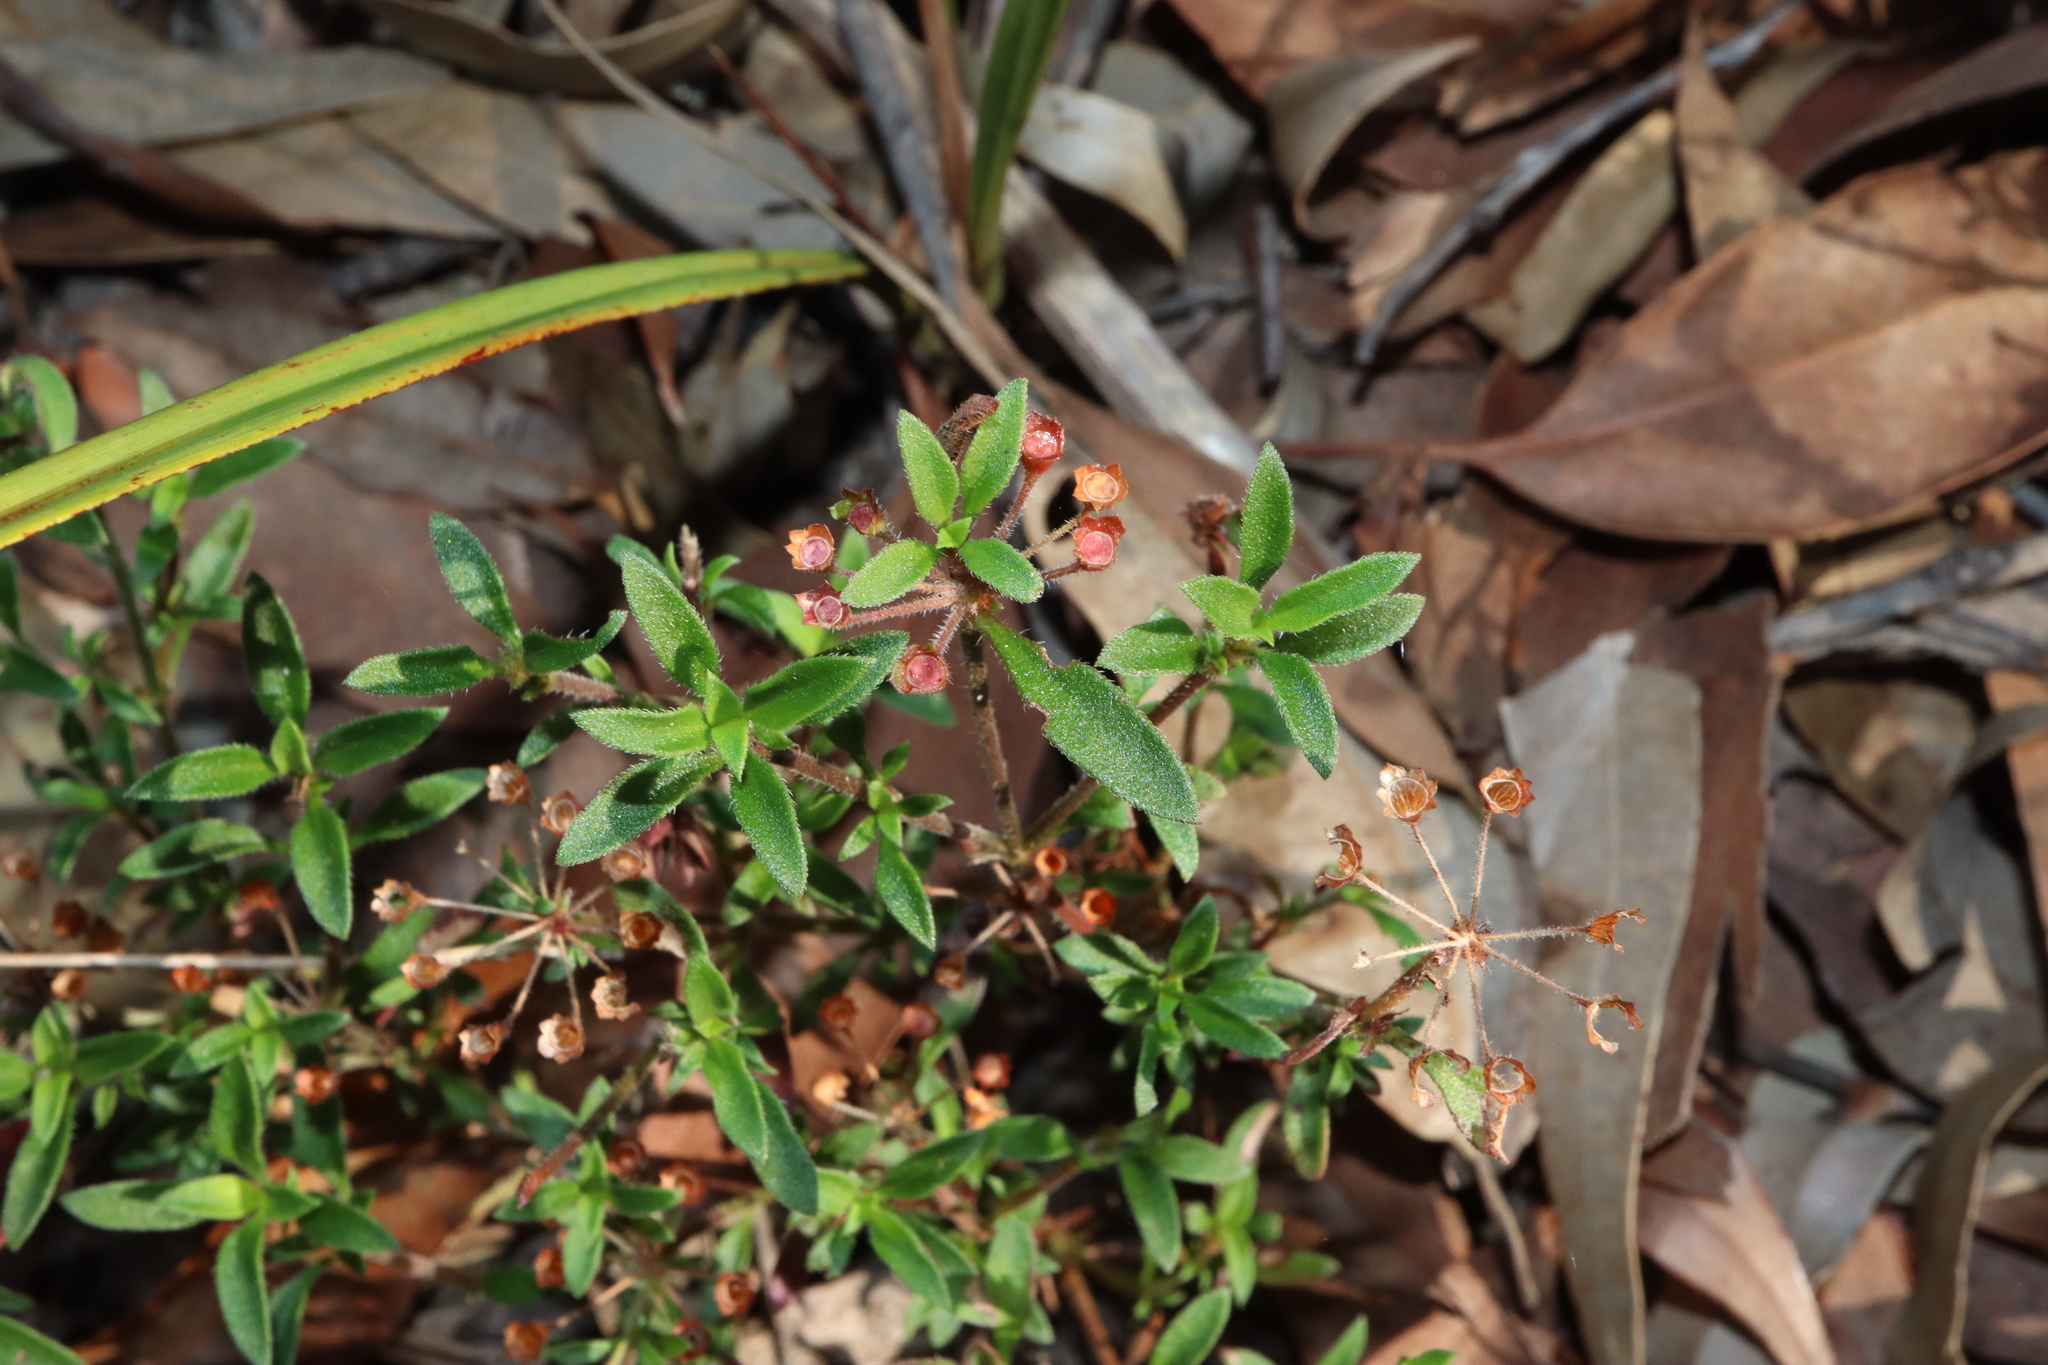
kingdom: Plantae
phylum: Tracheophyta
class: Magnoliopsida
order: Gentianales
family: Rubiaceae
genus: Pomax
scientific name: Pomax umbellata
